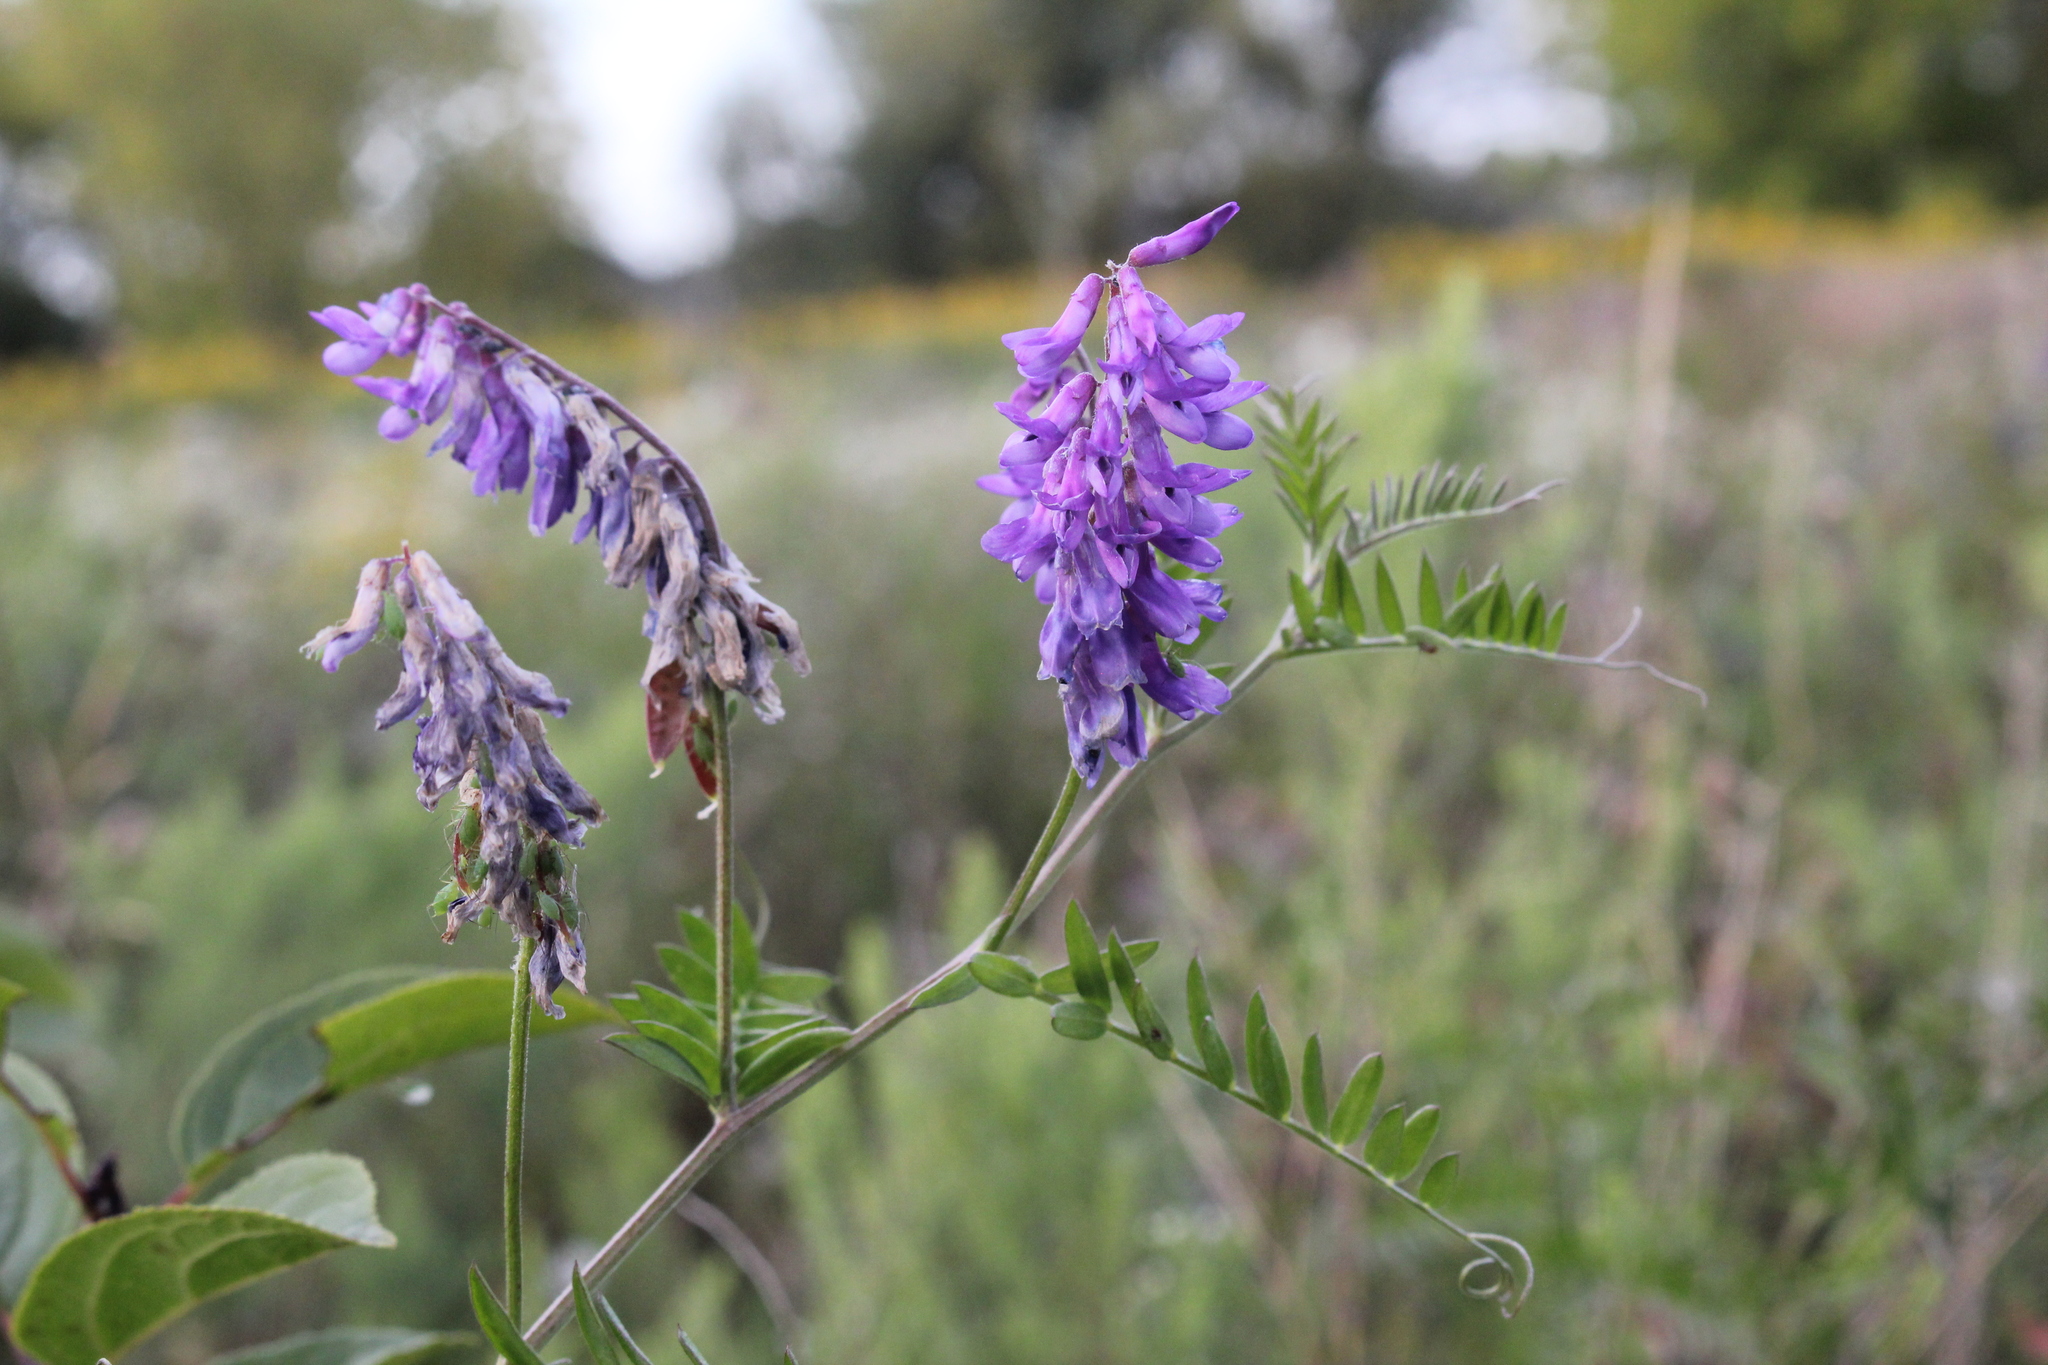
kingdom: Plantae
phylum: Tracheophyta
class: Magnoliopsida
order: Fabales
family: Fabaceae
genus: Vicia
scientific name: Vicia cracca
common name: Bird vetch
